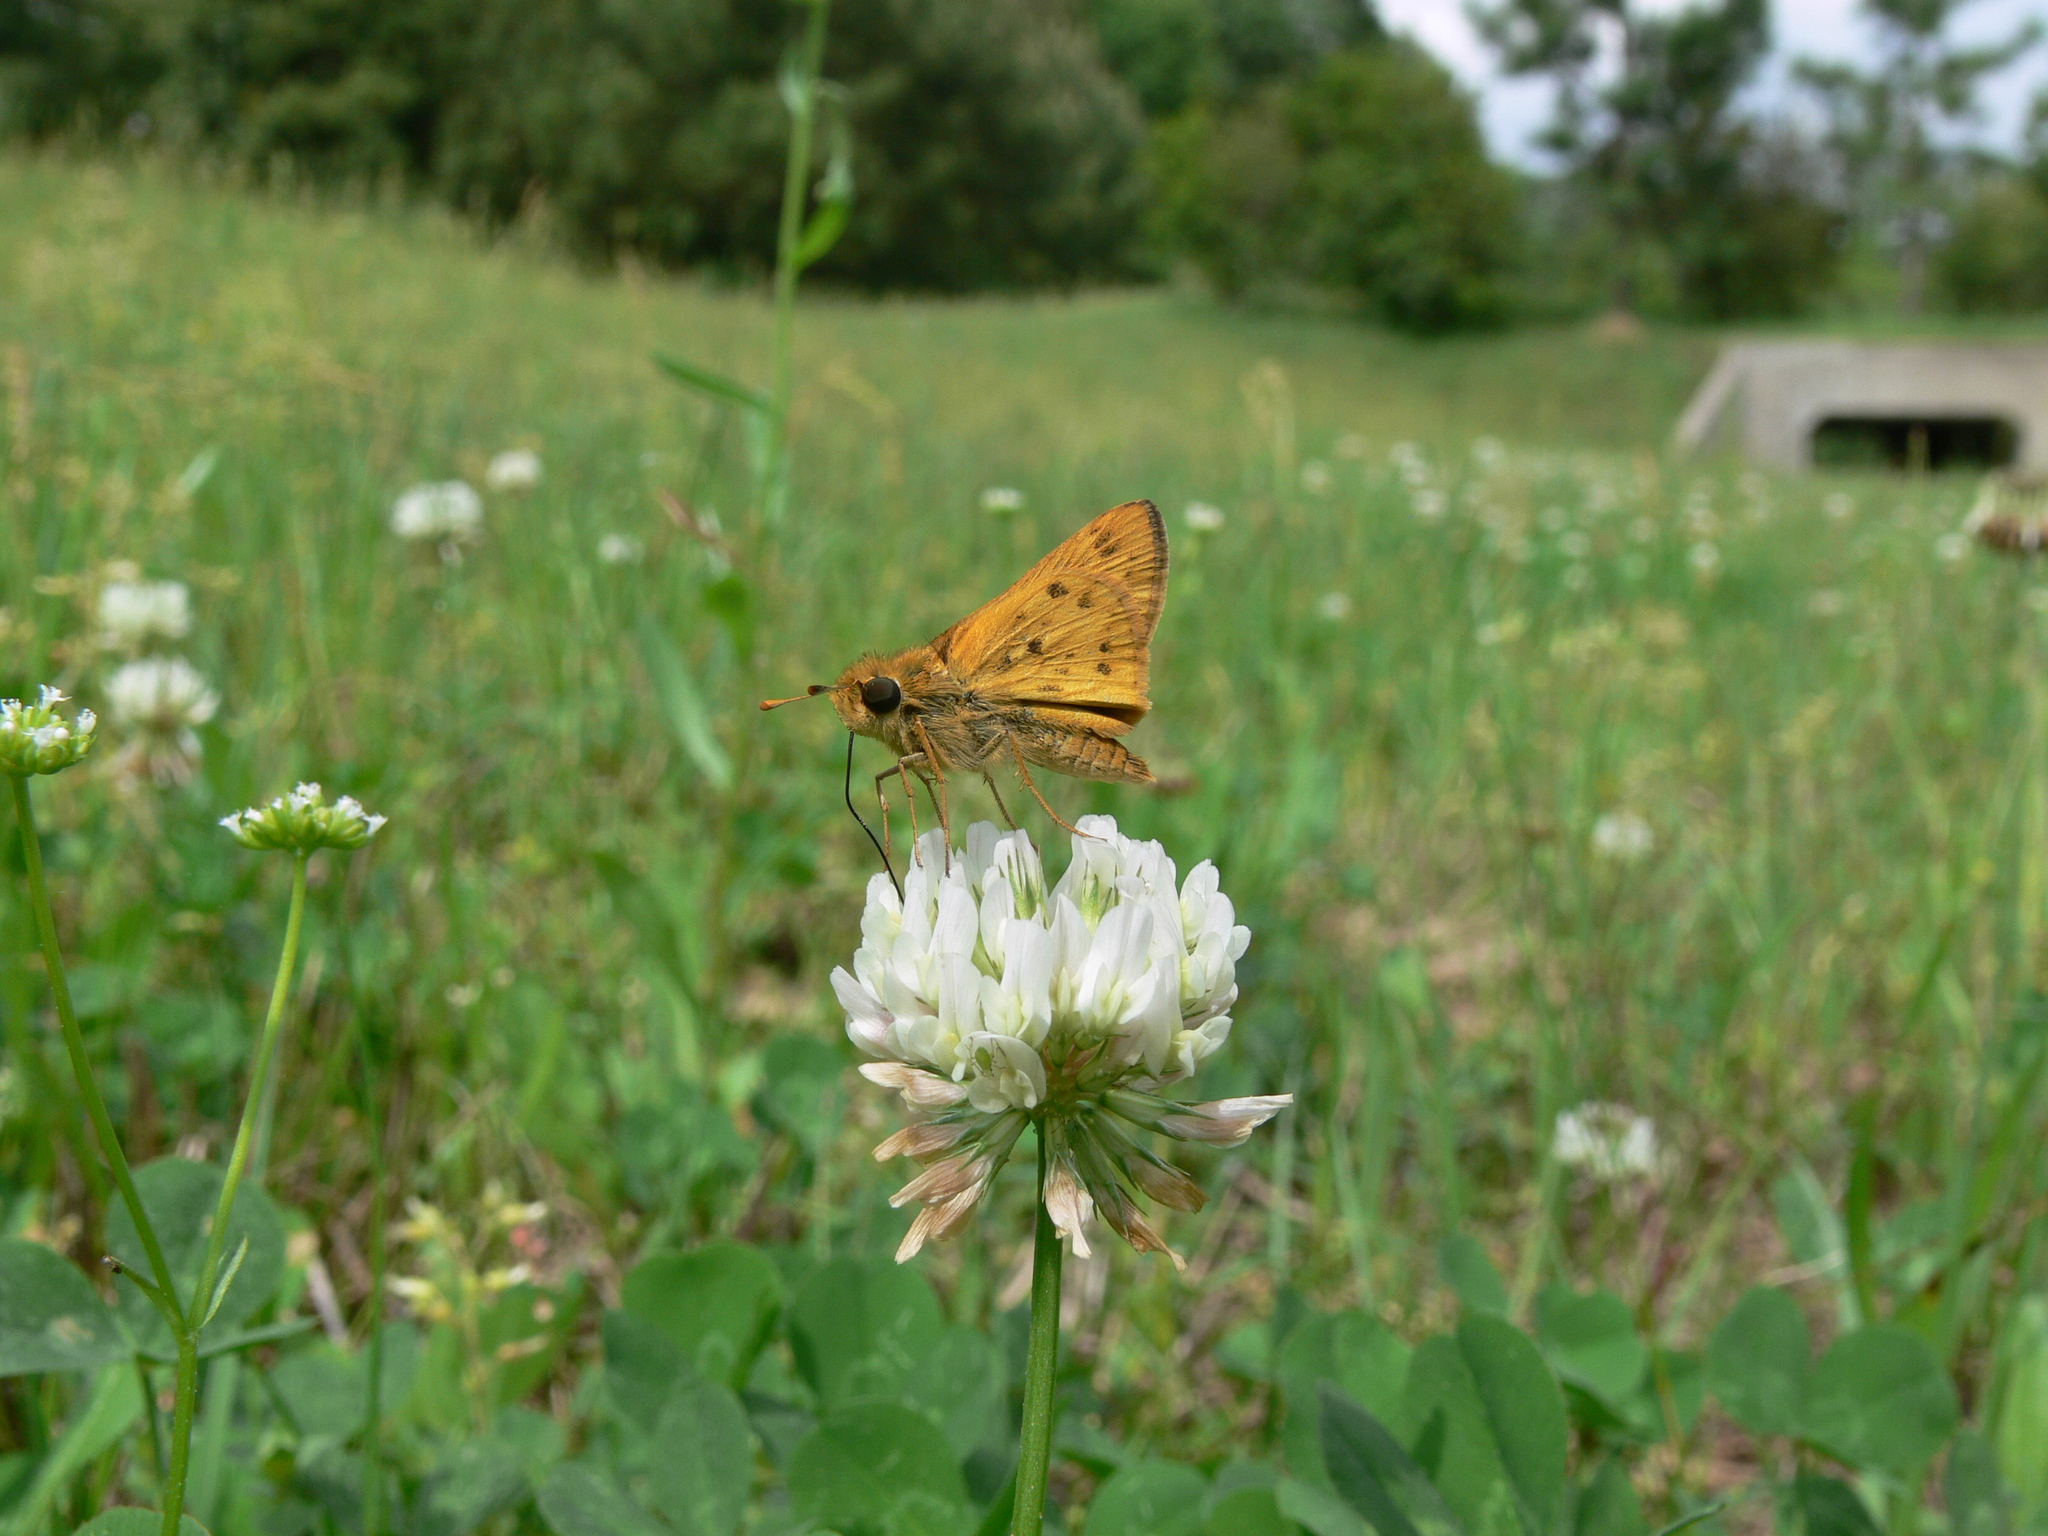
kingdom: Animalia
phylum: Arthropoda
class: Insecta
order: Lepidoptera
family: Hesperiidae
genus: Hylephila
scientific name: Hylephila phyleus
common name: Fiery skipper
